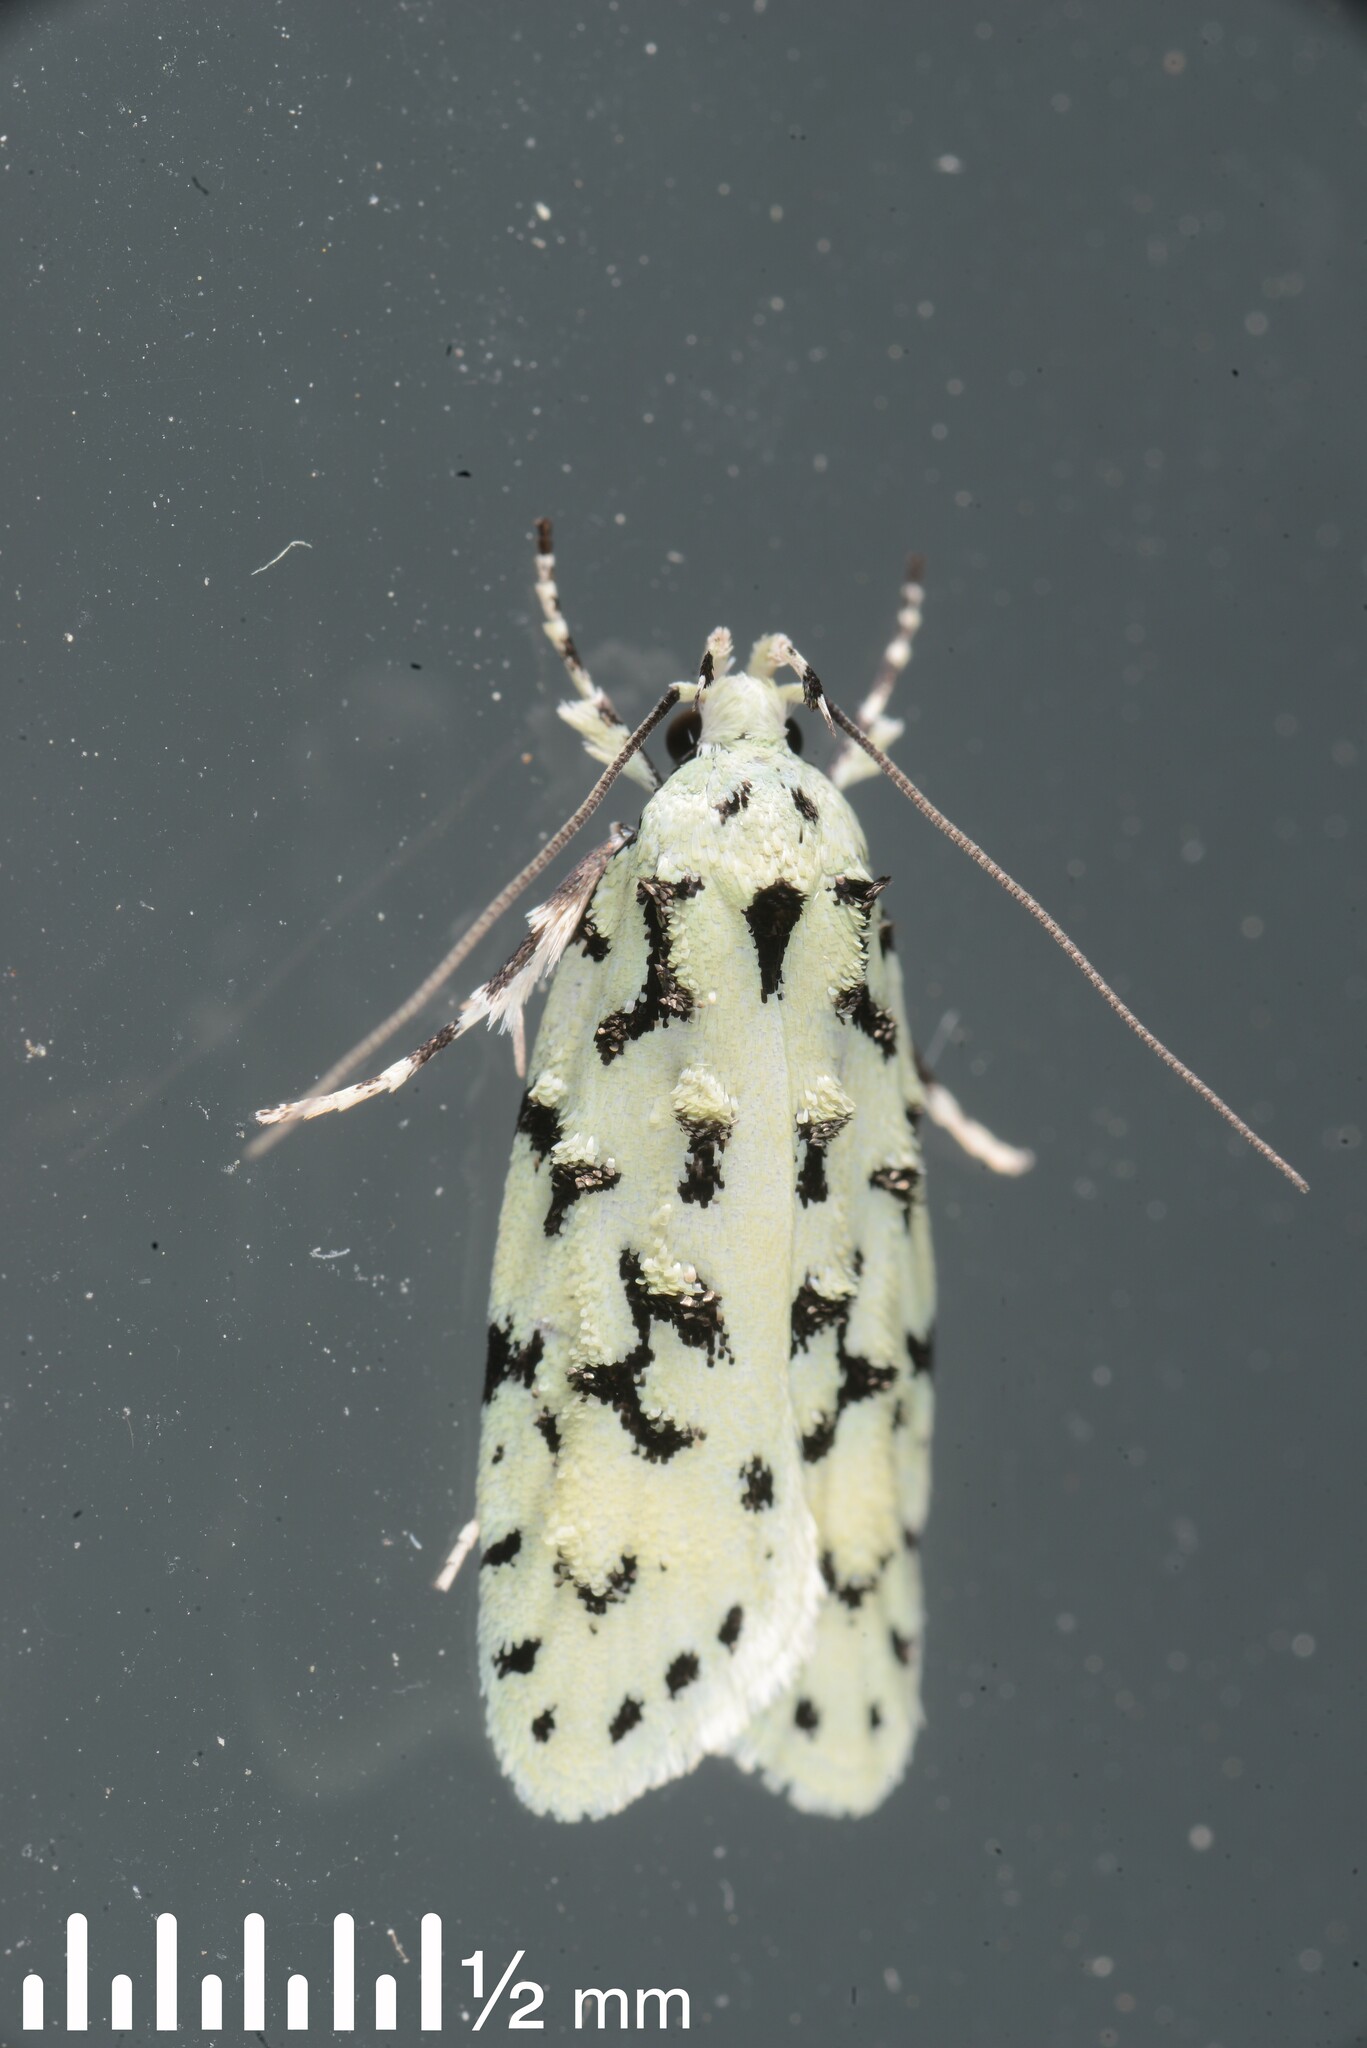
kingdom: Animalia
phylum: Arthropoda
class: Insecta
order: Lepidoptera
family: Oecophoridae
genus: Izatha
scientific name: Izatha huttoni
